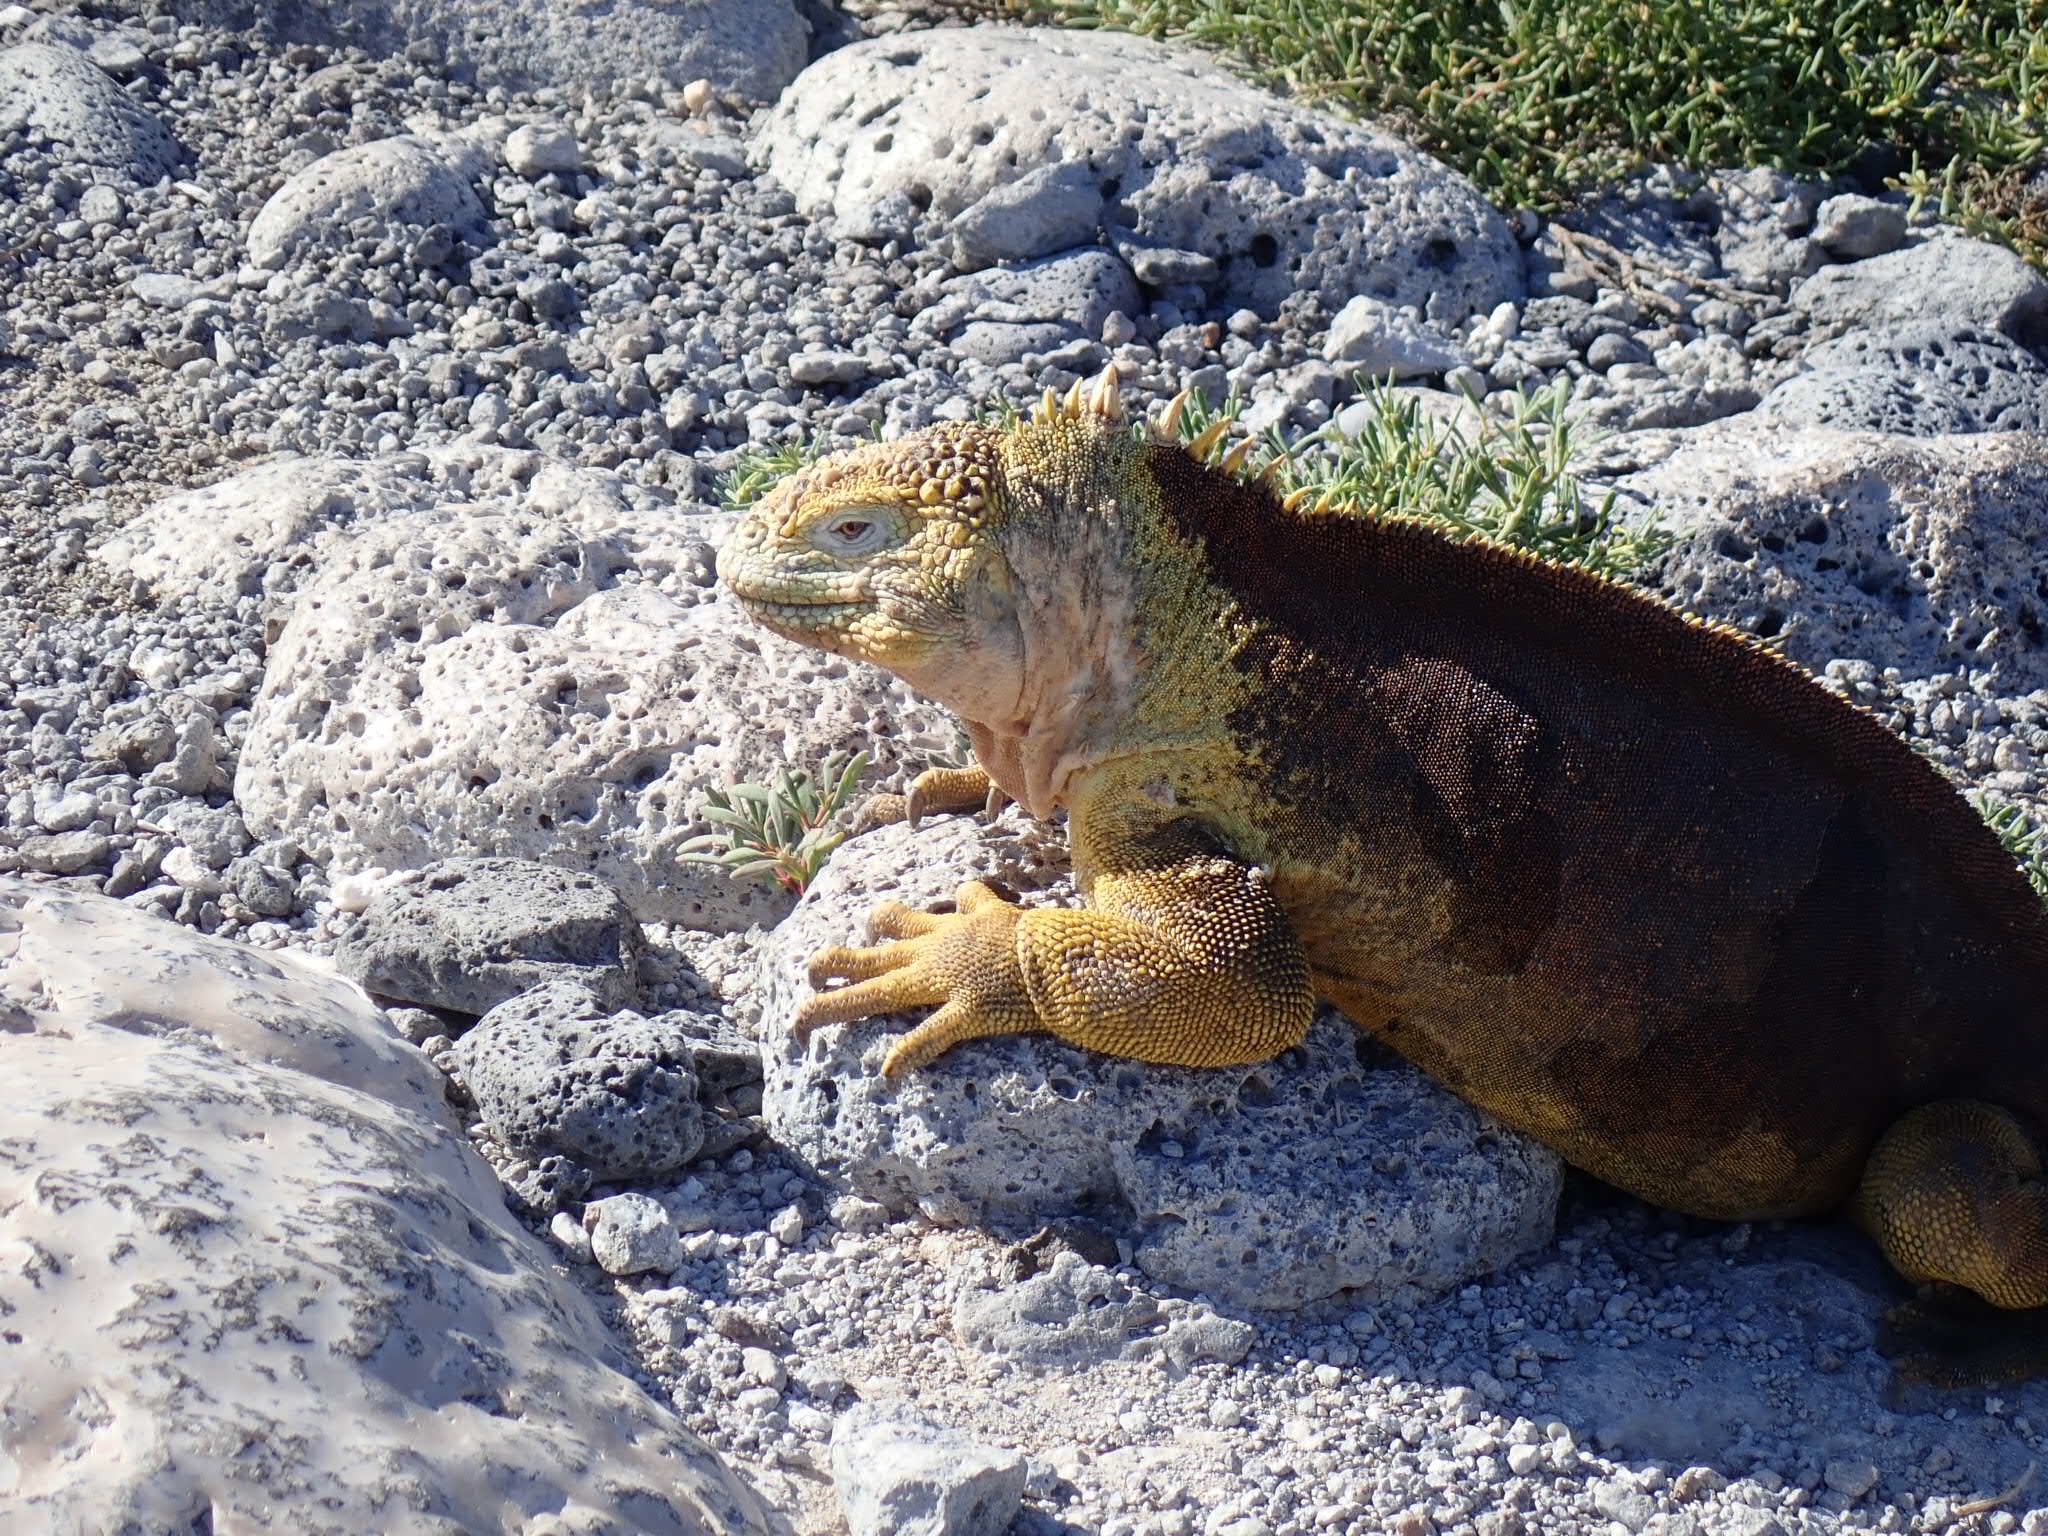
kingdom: Animalia
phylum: Chordata
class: Squamata
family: Iguanidae
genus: Conolophus
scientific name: Conolophus subcristatus
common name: Galapagos land iguana
